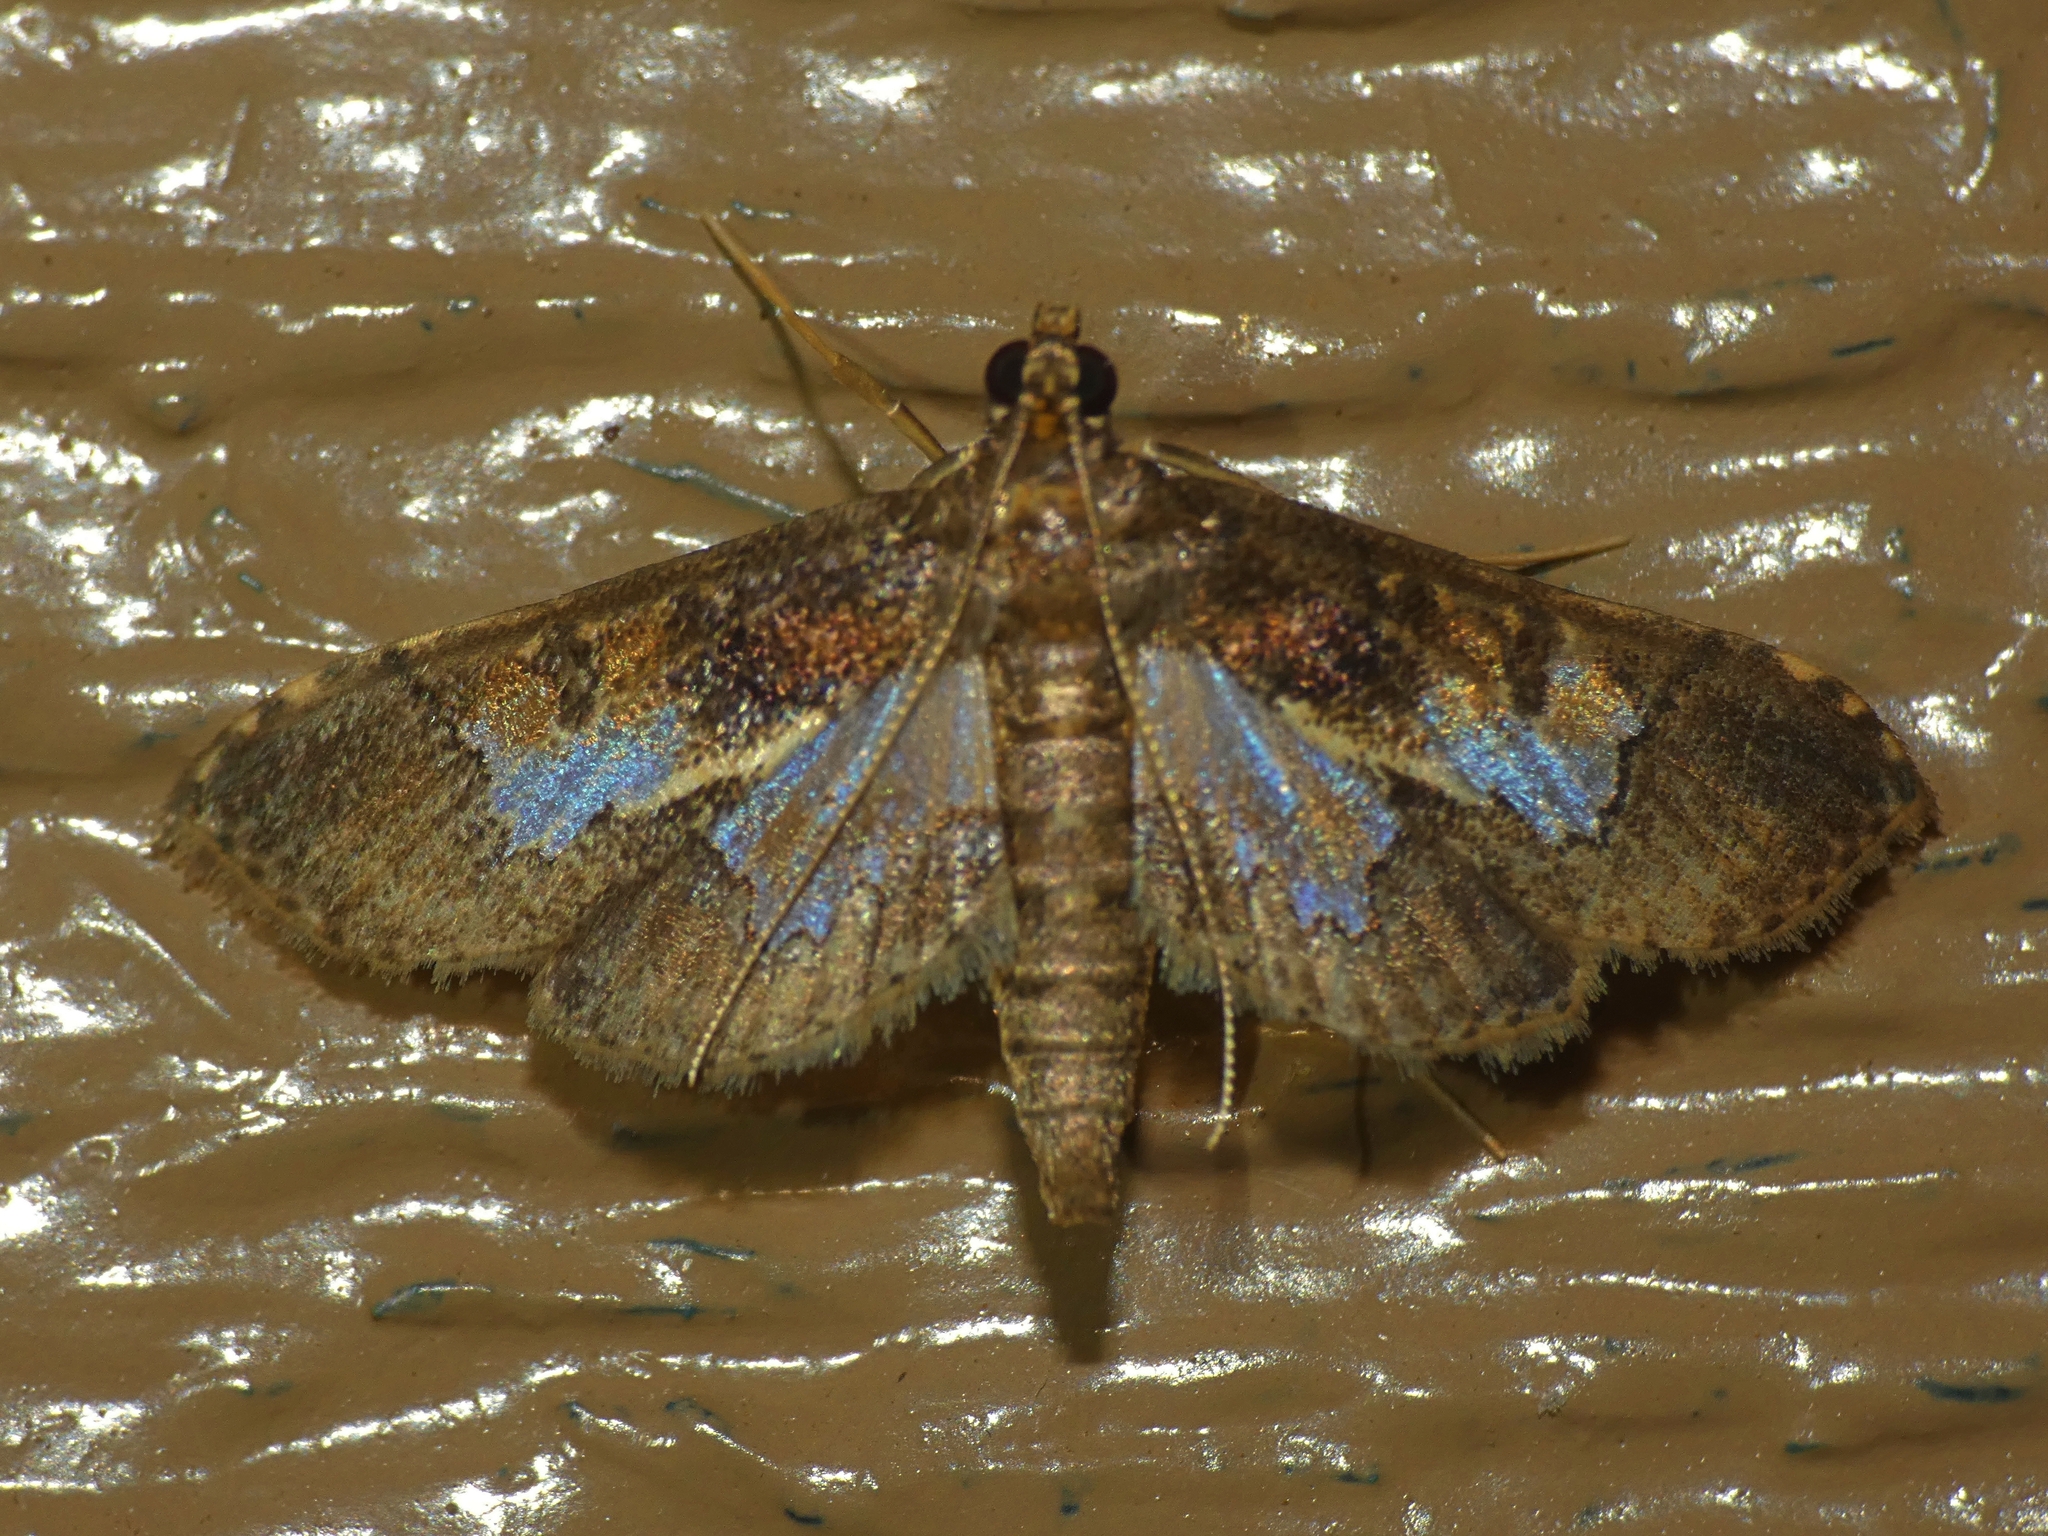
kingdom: Animalia
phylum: Arthropoda
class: Insecta
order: Lepidoptera
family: Crambidae
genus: Hydriris
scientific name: Hydriris ornatalis
